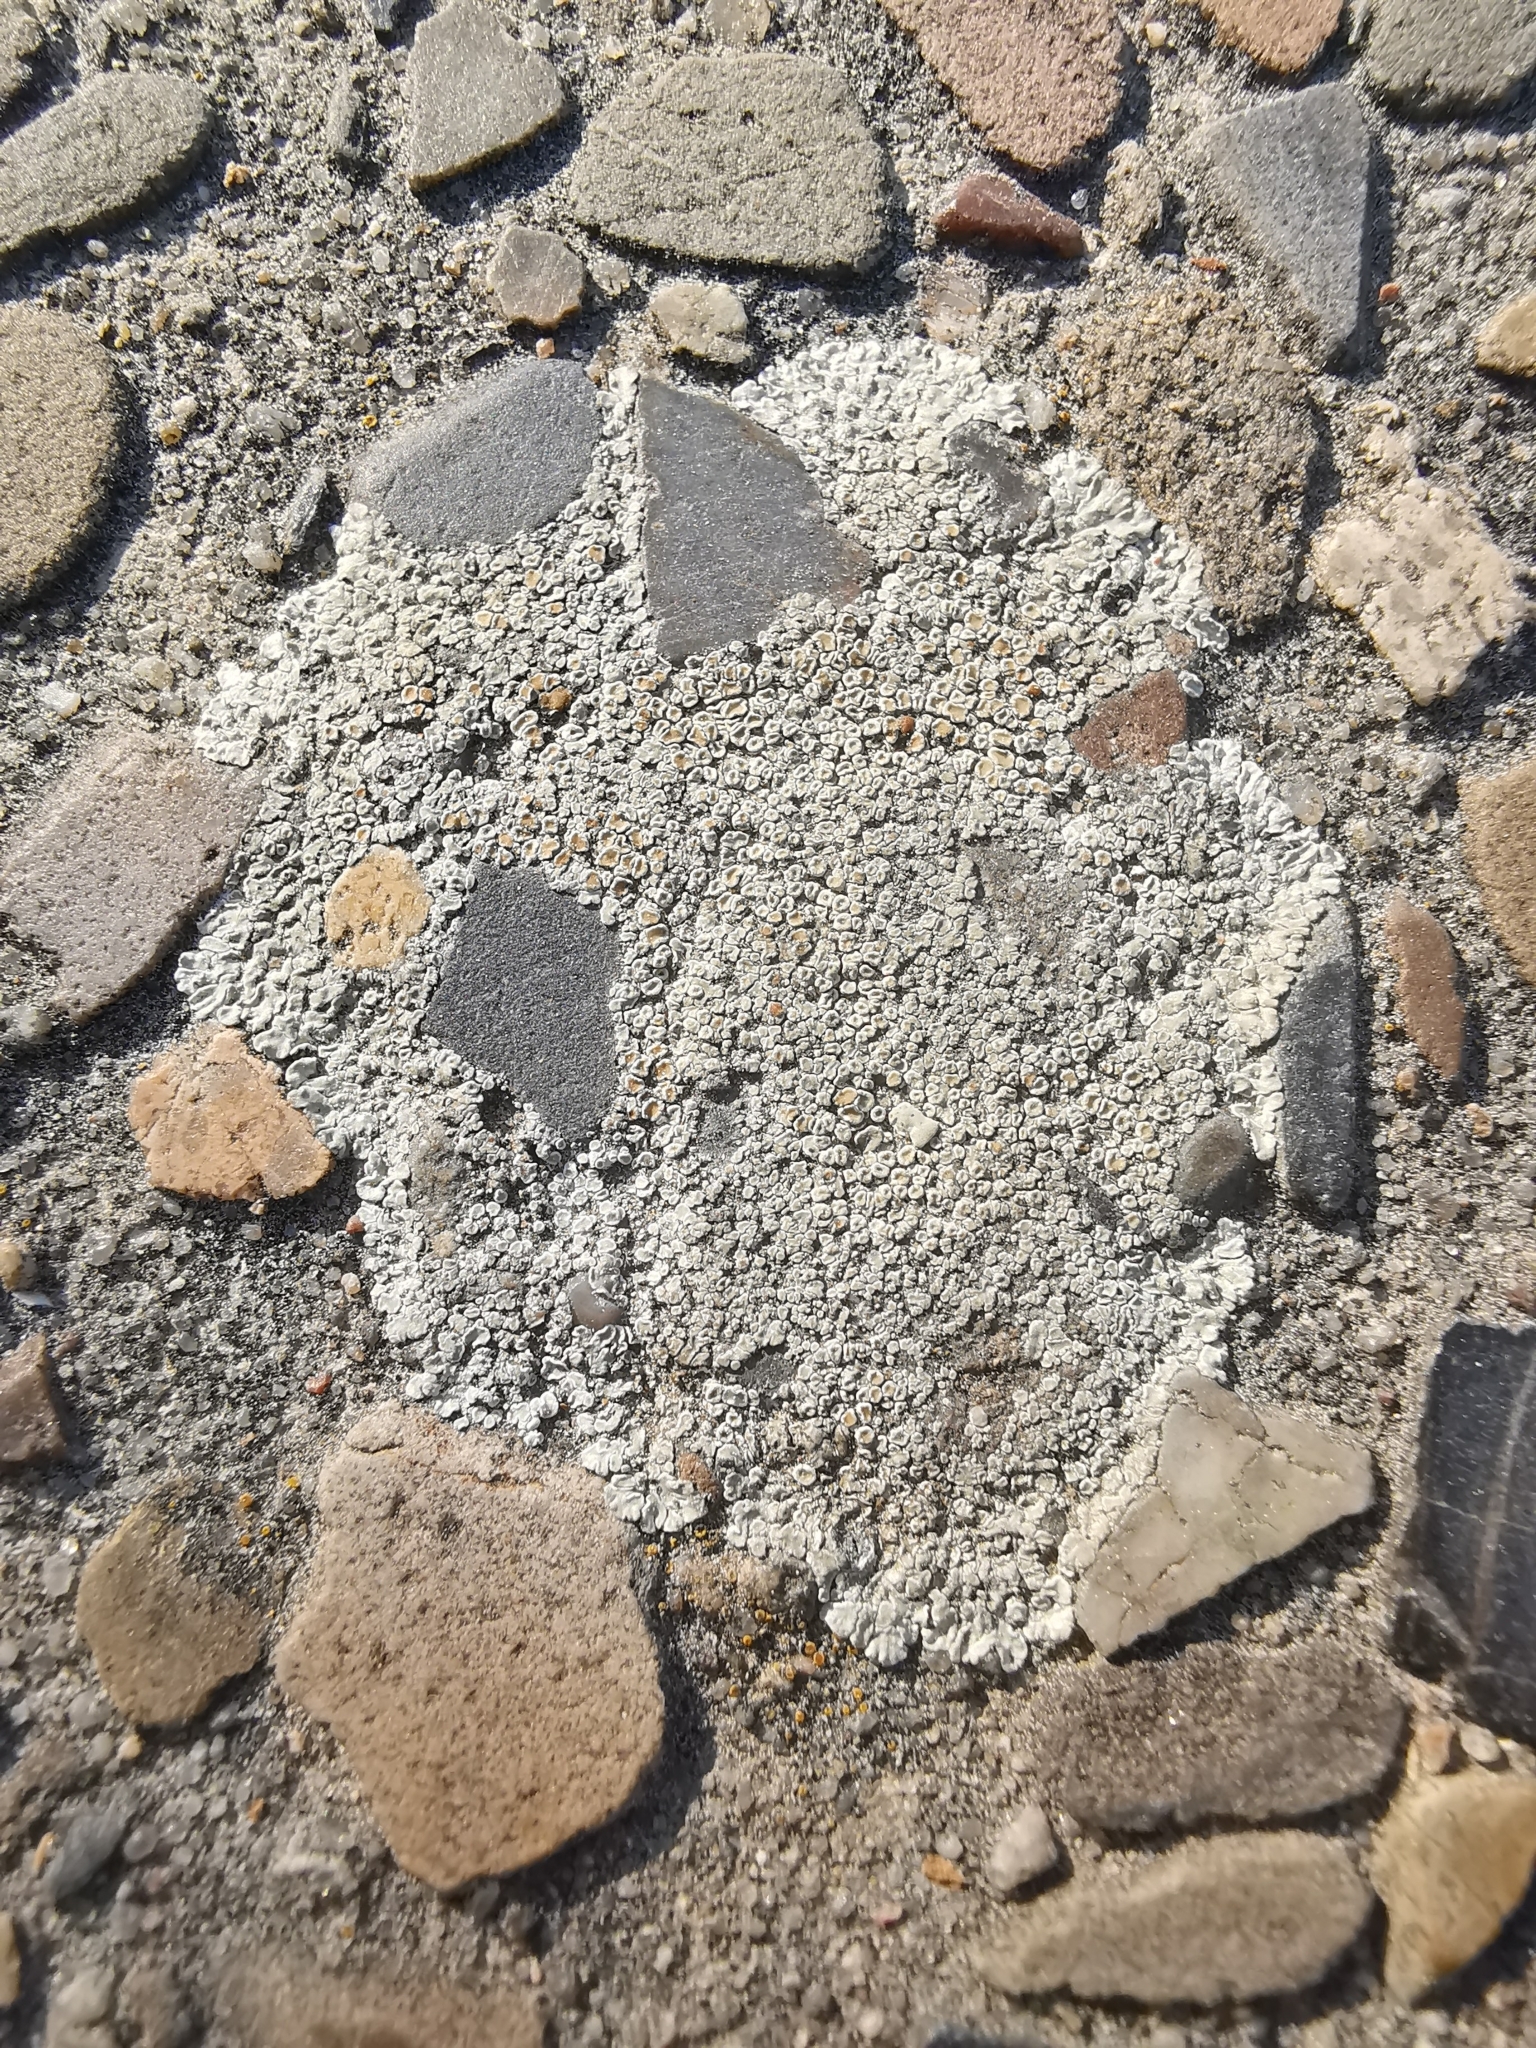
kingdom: Fungi
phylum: Ascomycota
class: Lecanoromycetes
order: Lecanorales
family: Lecanoraceae
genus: Protoparmeliopsis
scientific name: Protoparmeliopsis muralis
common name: Stonewall rim lichen
